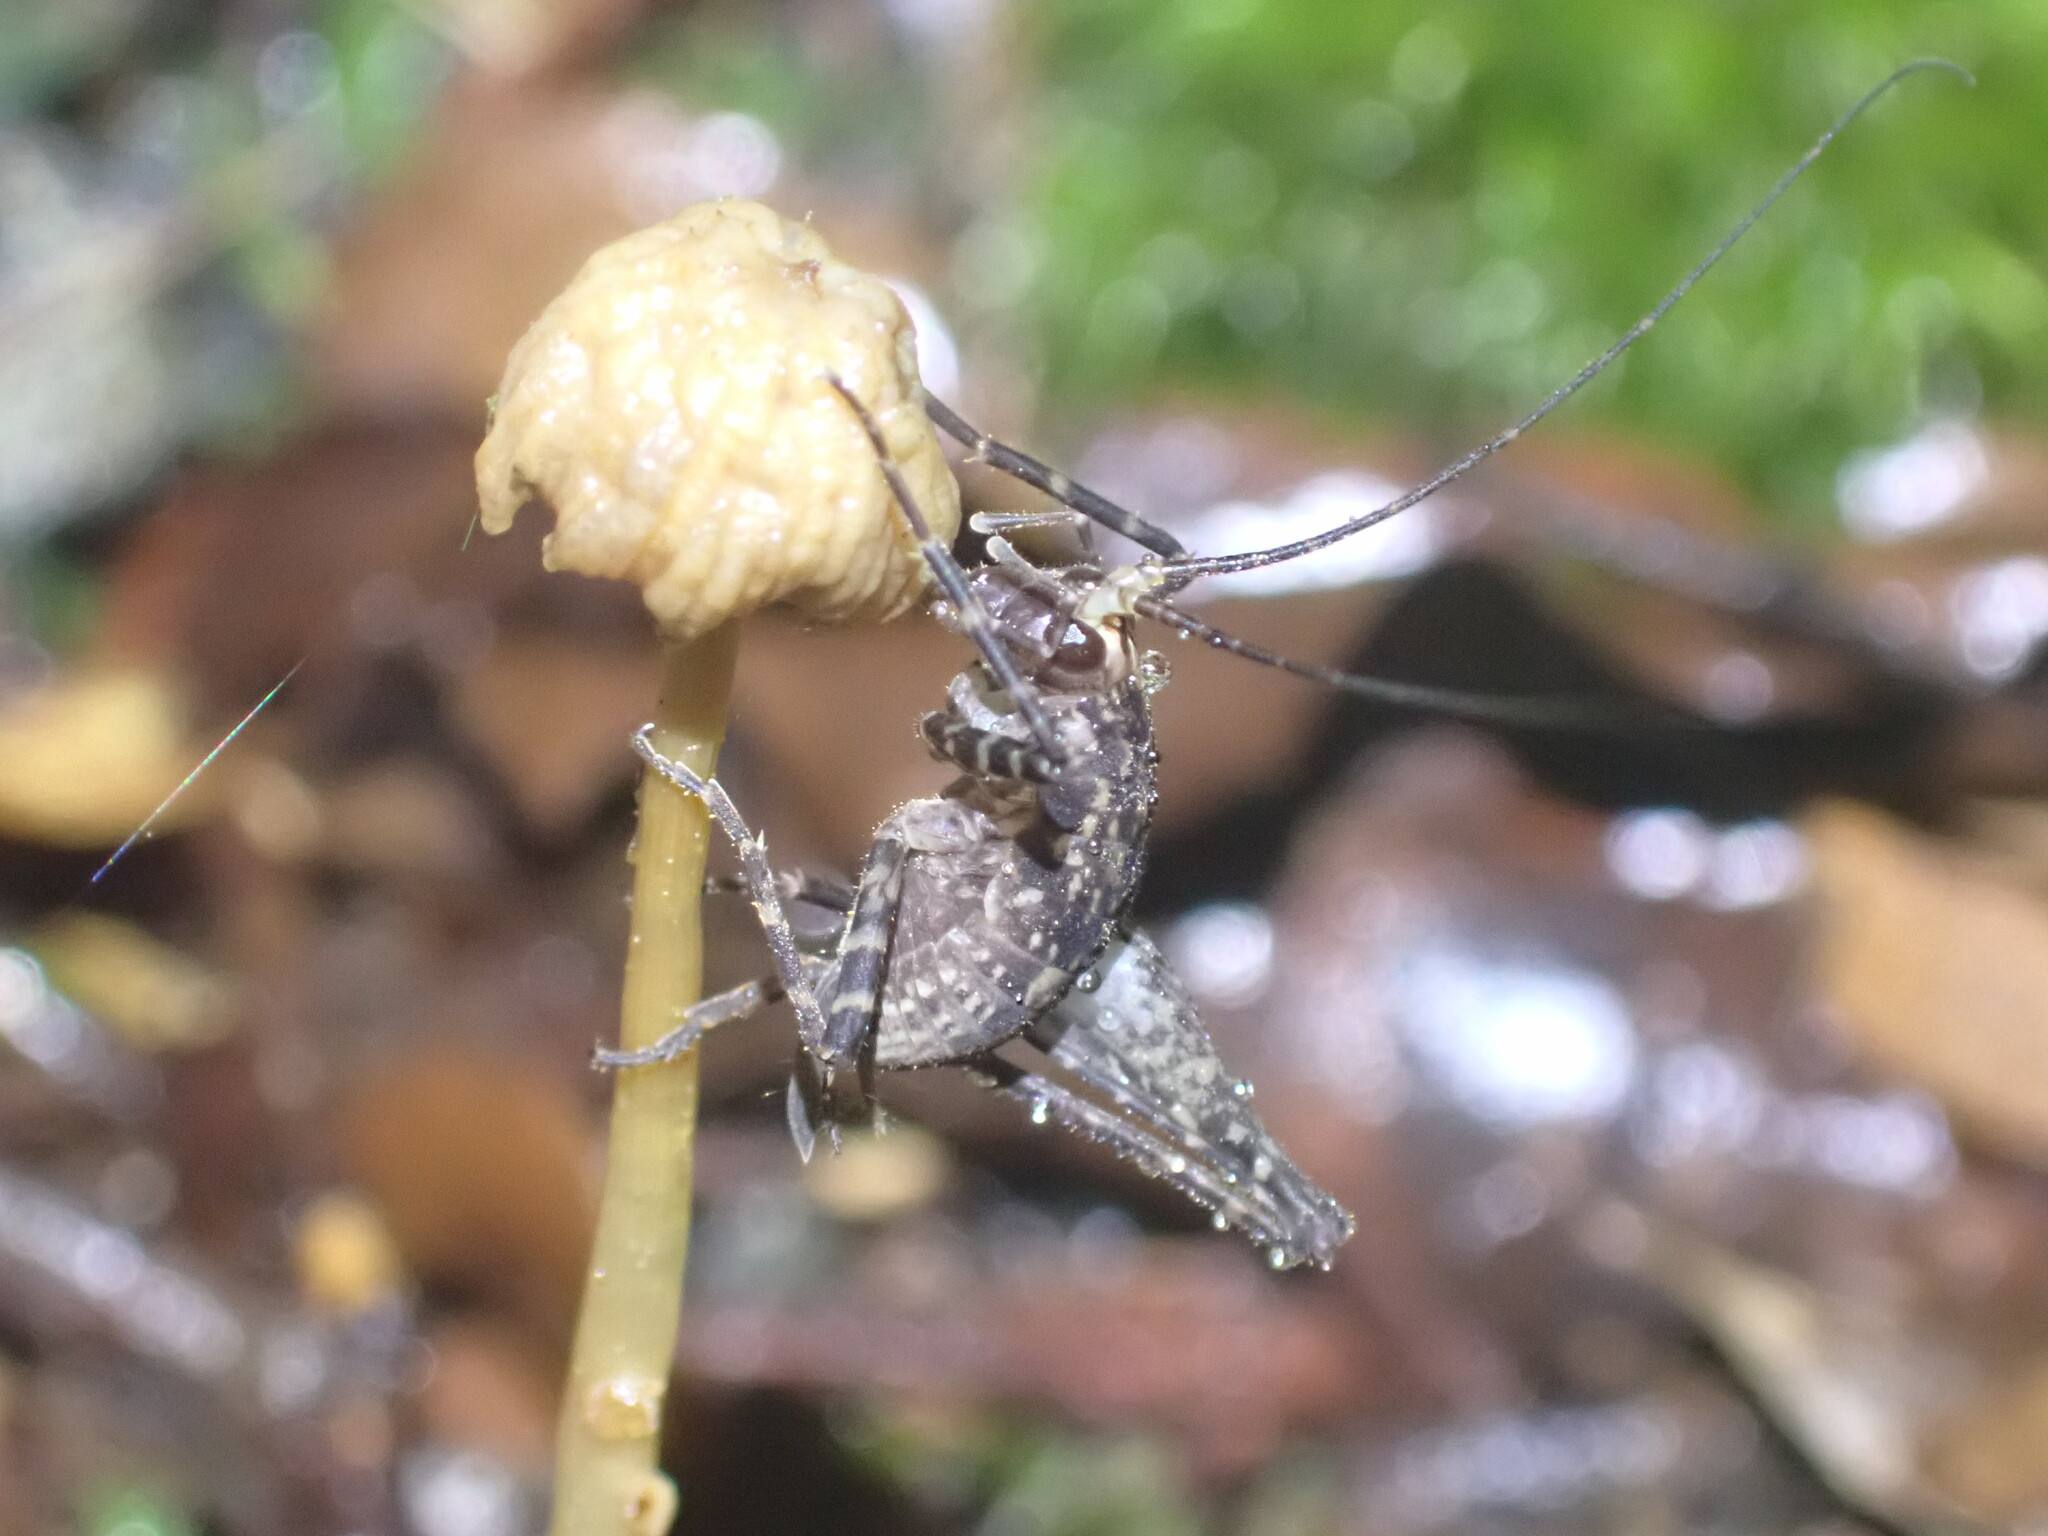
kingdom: Animalia
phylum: Arthropoda
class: Insecta
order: Orthoptera
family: Rhaphidophoridae
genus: Pleioplectron
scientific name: Pleioplectron gubernator
